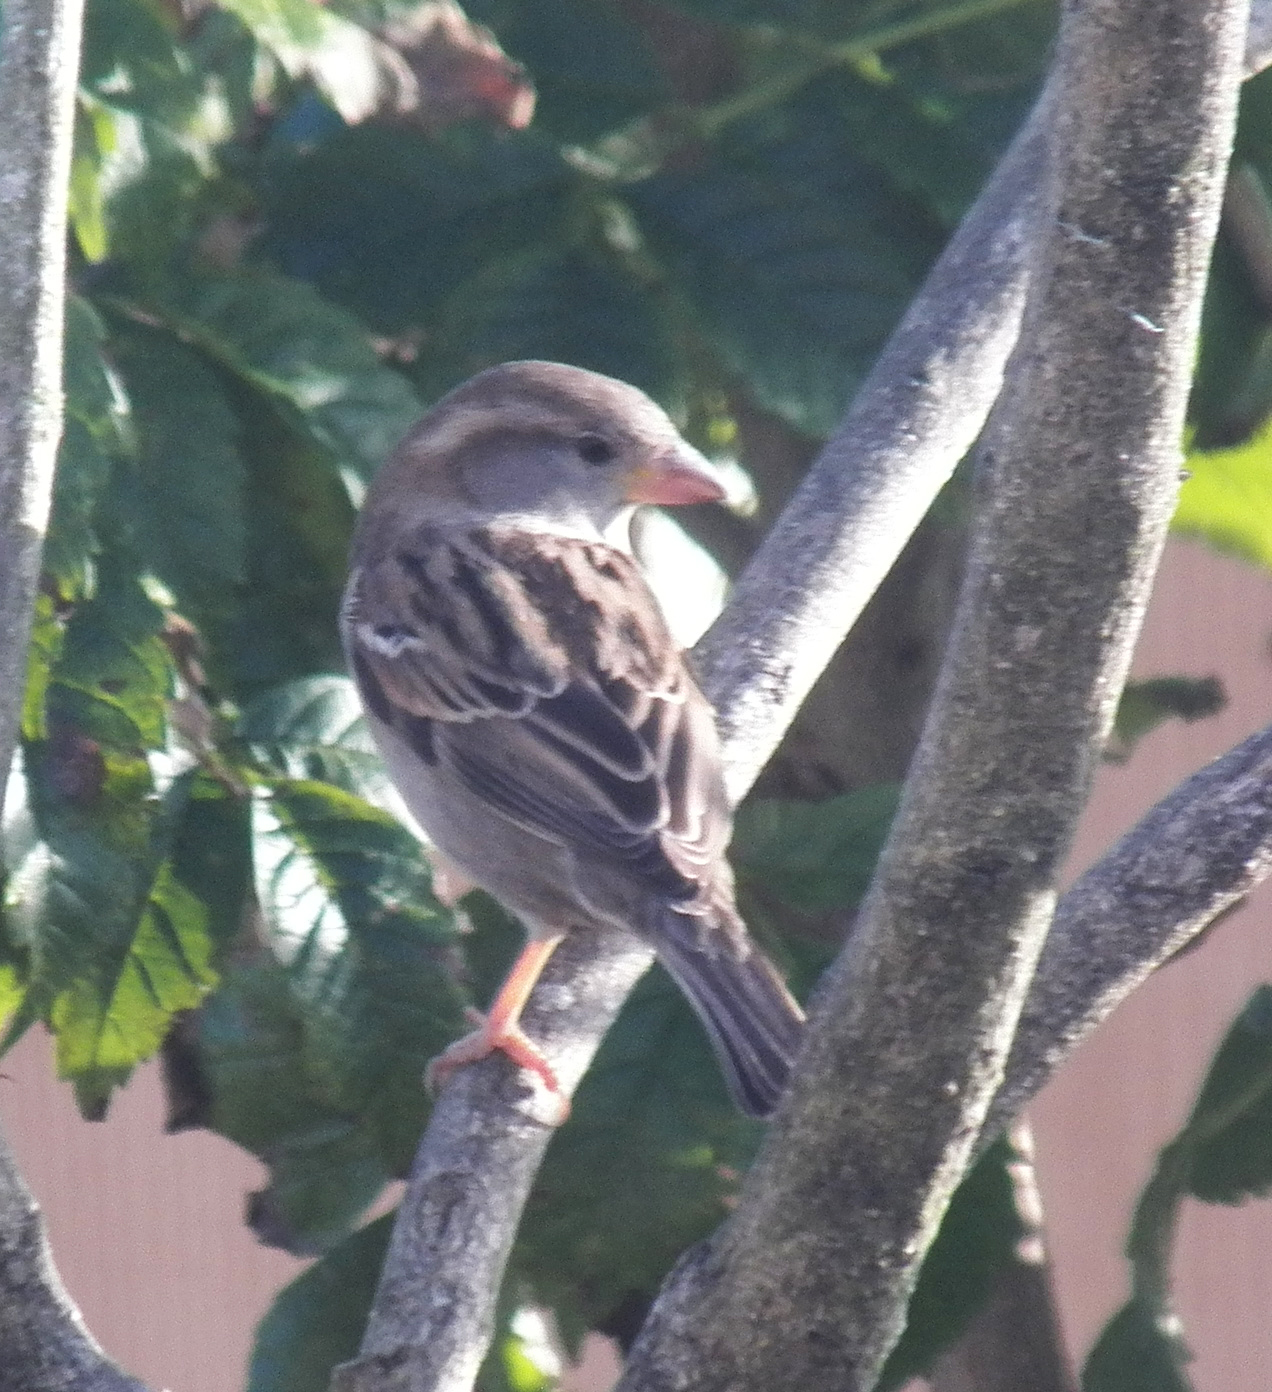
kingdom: Animalia
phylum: Chordata
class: Aves
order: Passeriformes
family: Passeridae
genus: Passer
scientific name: Passer domesticus
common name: House sparrow
